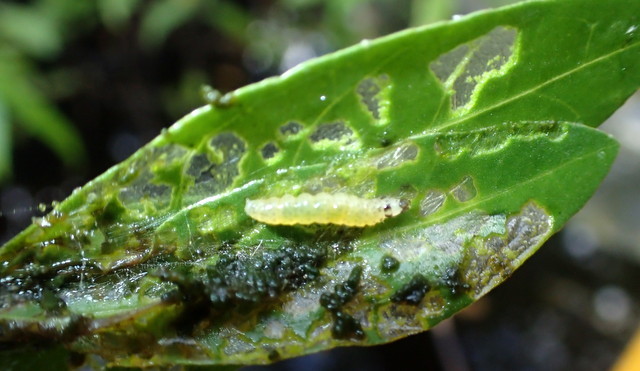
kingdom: Animalia
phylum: Arthropoda
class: Insecta
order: Lepidoptera
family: Crambidae
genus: Herpetogramma
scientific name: Herpetogramma bipunctalis
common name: Southern beet webworm
